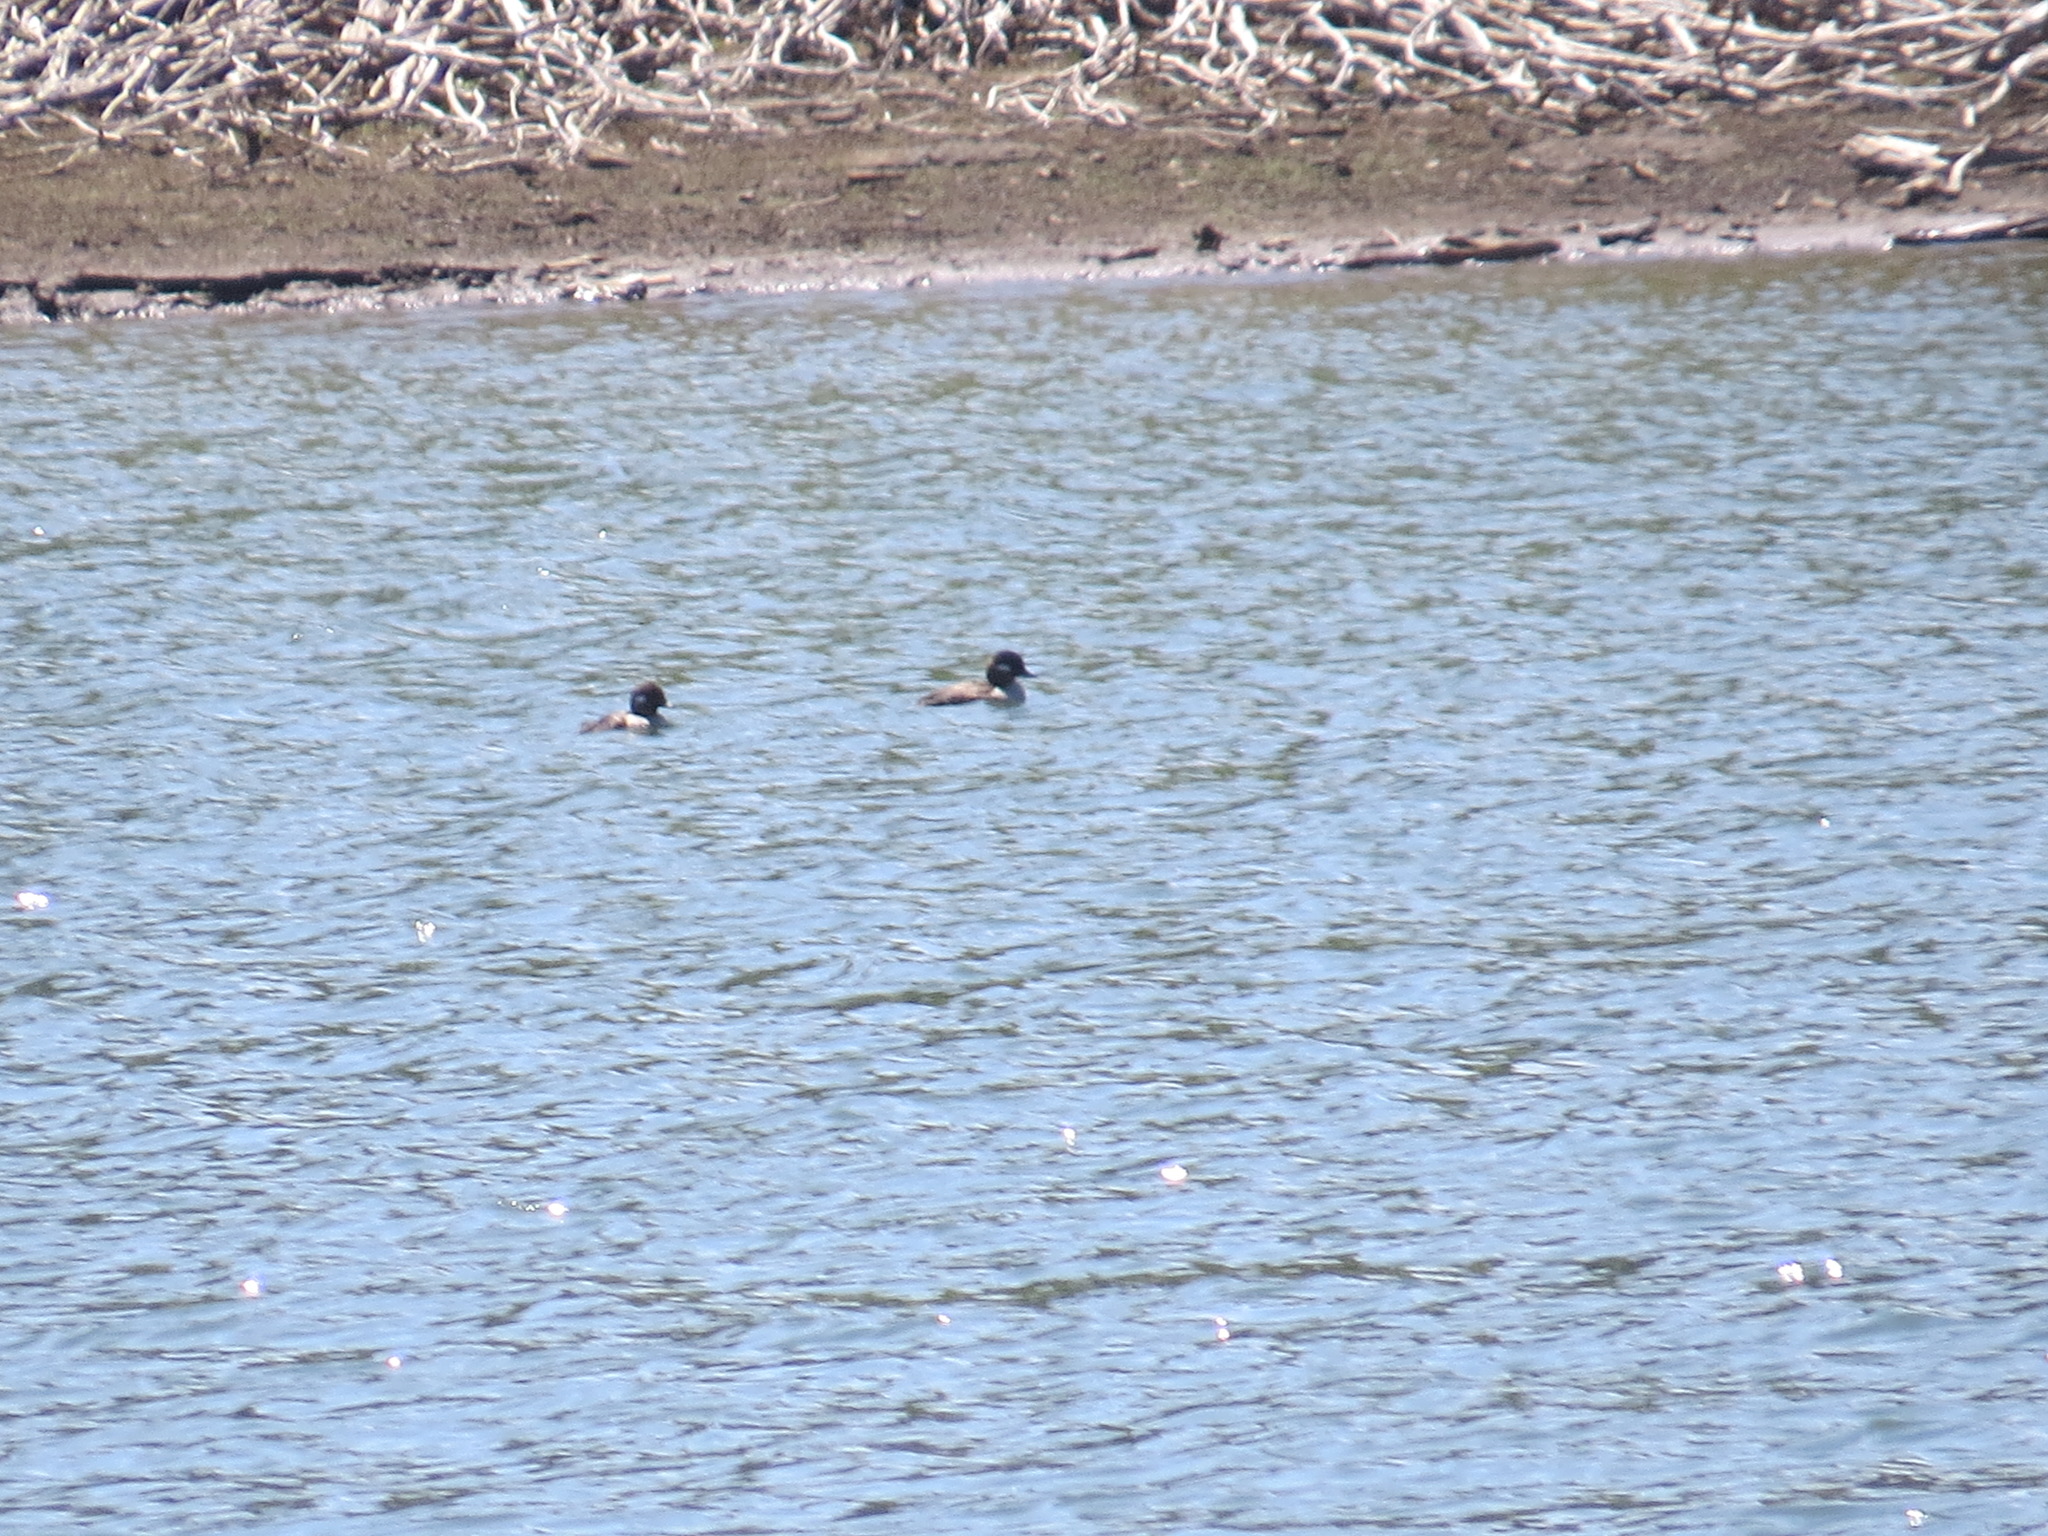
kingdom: Animalia
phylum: Chordata
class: Aves
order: Anseriformes
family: Anatidae
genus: Bucephala
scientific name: Bucephala albeola
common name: Bufflehead
